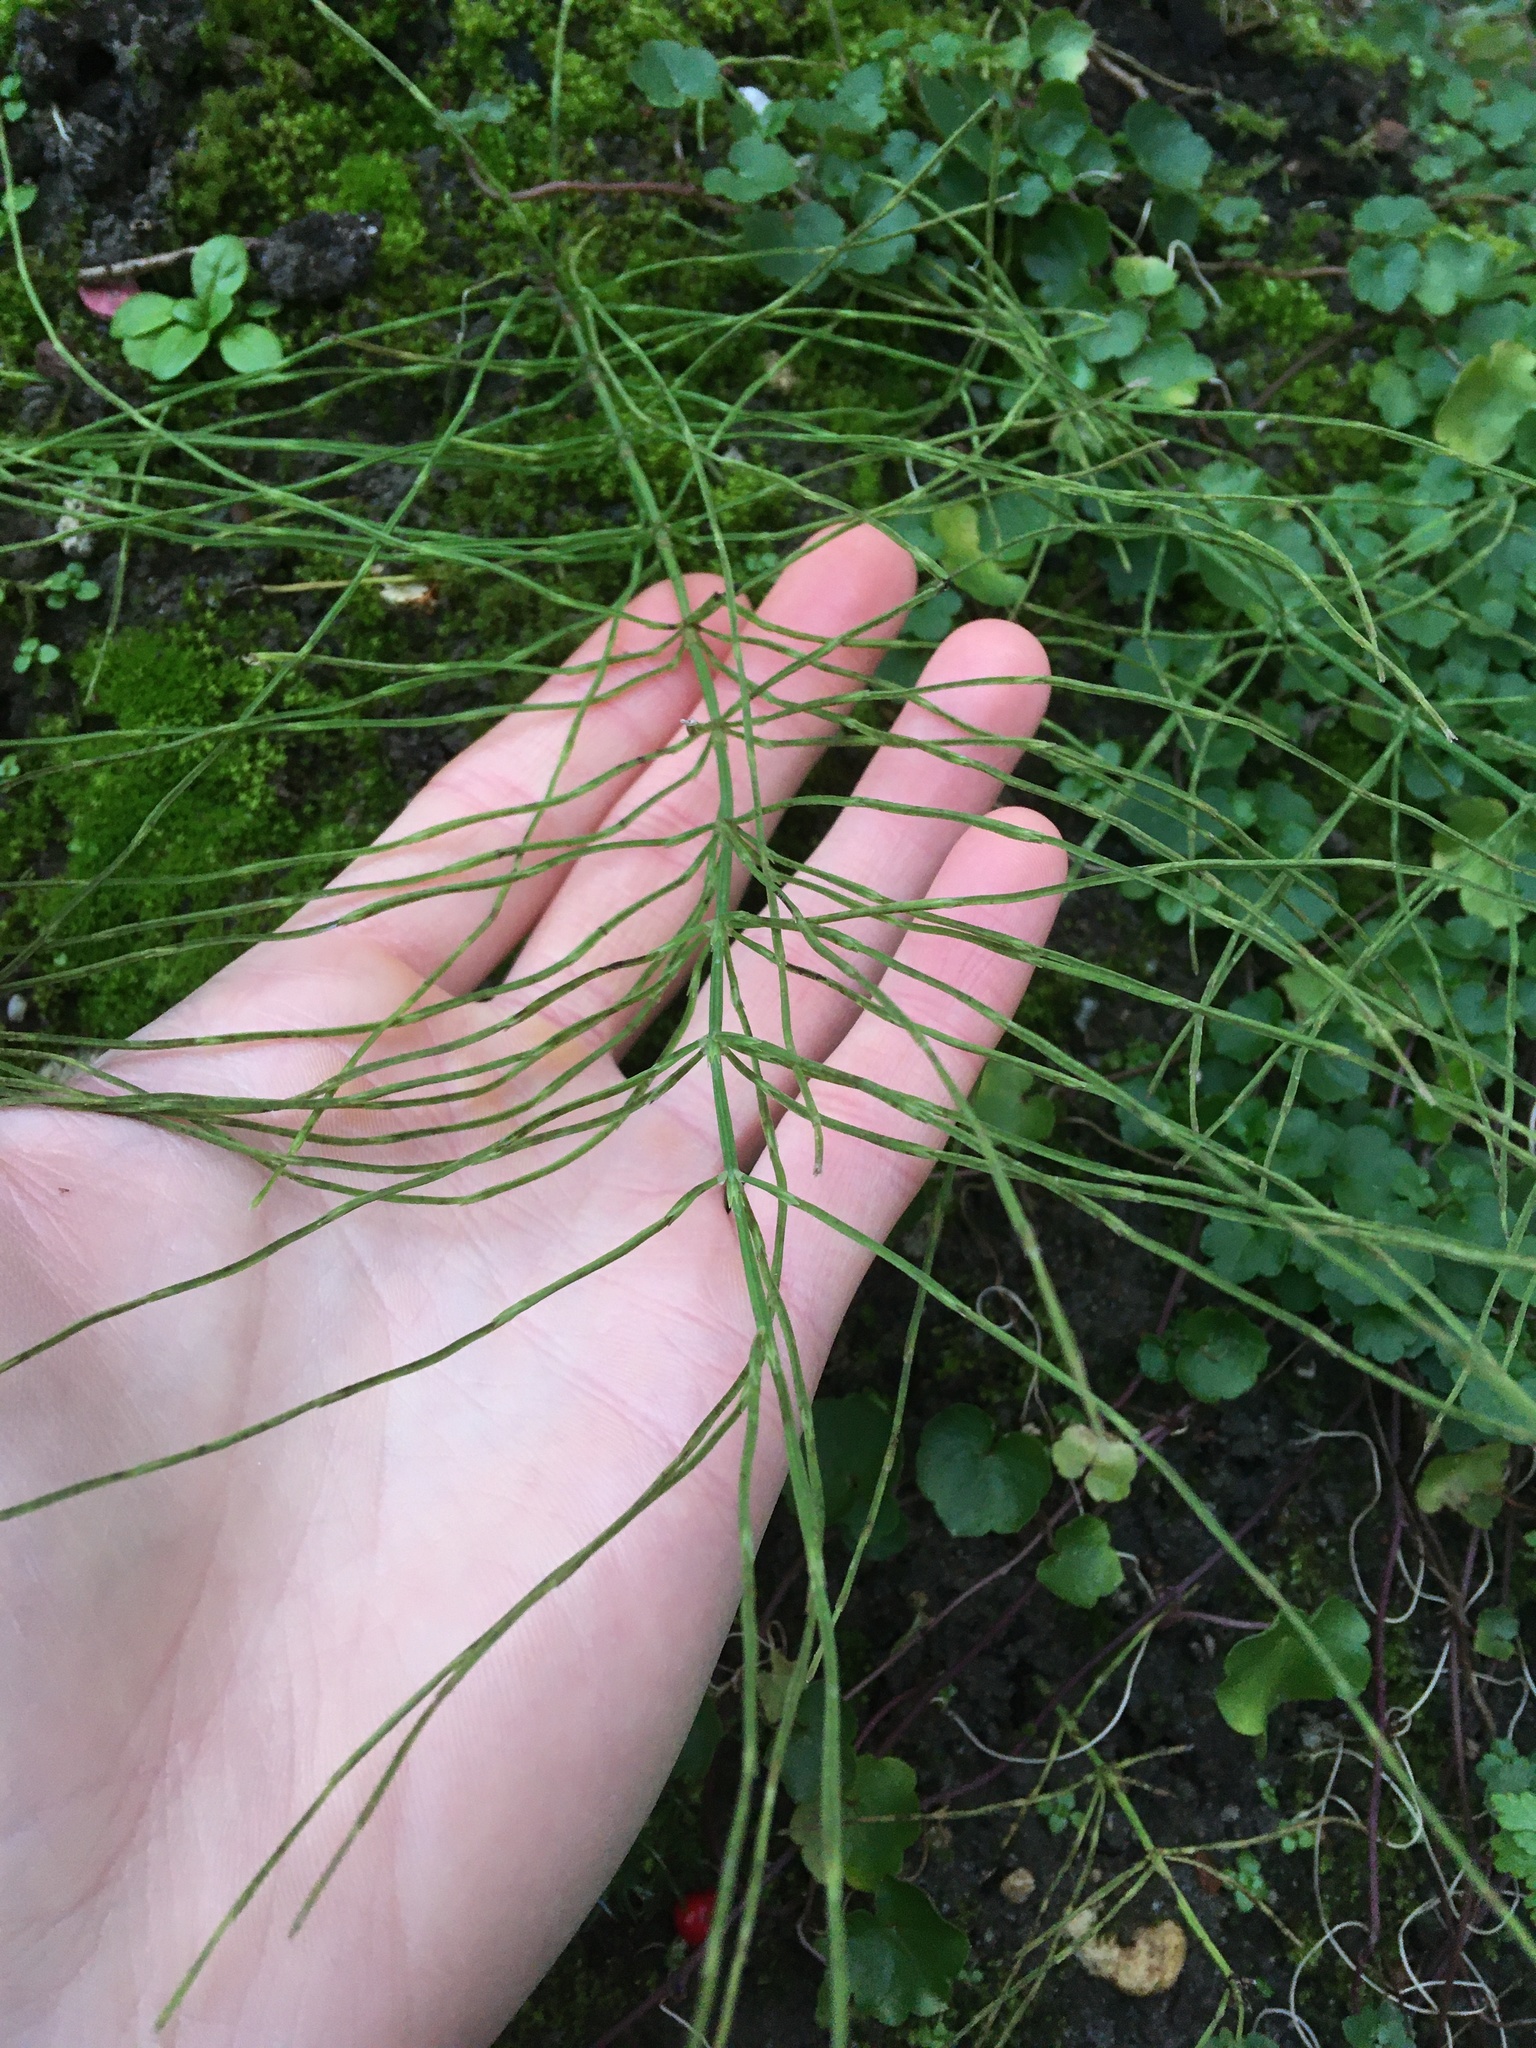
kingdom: Plantae
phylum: Tracheophyta
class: Polypodiopsida
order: Equisetales
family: Equisetaceae
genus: Equisetum
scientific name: Equisetum arvense
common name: Field horsetail
